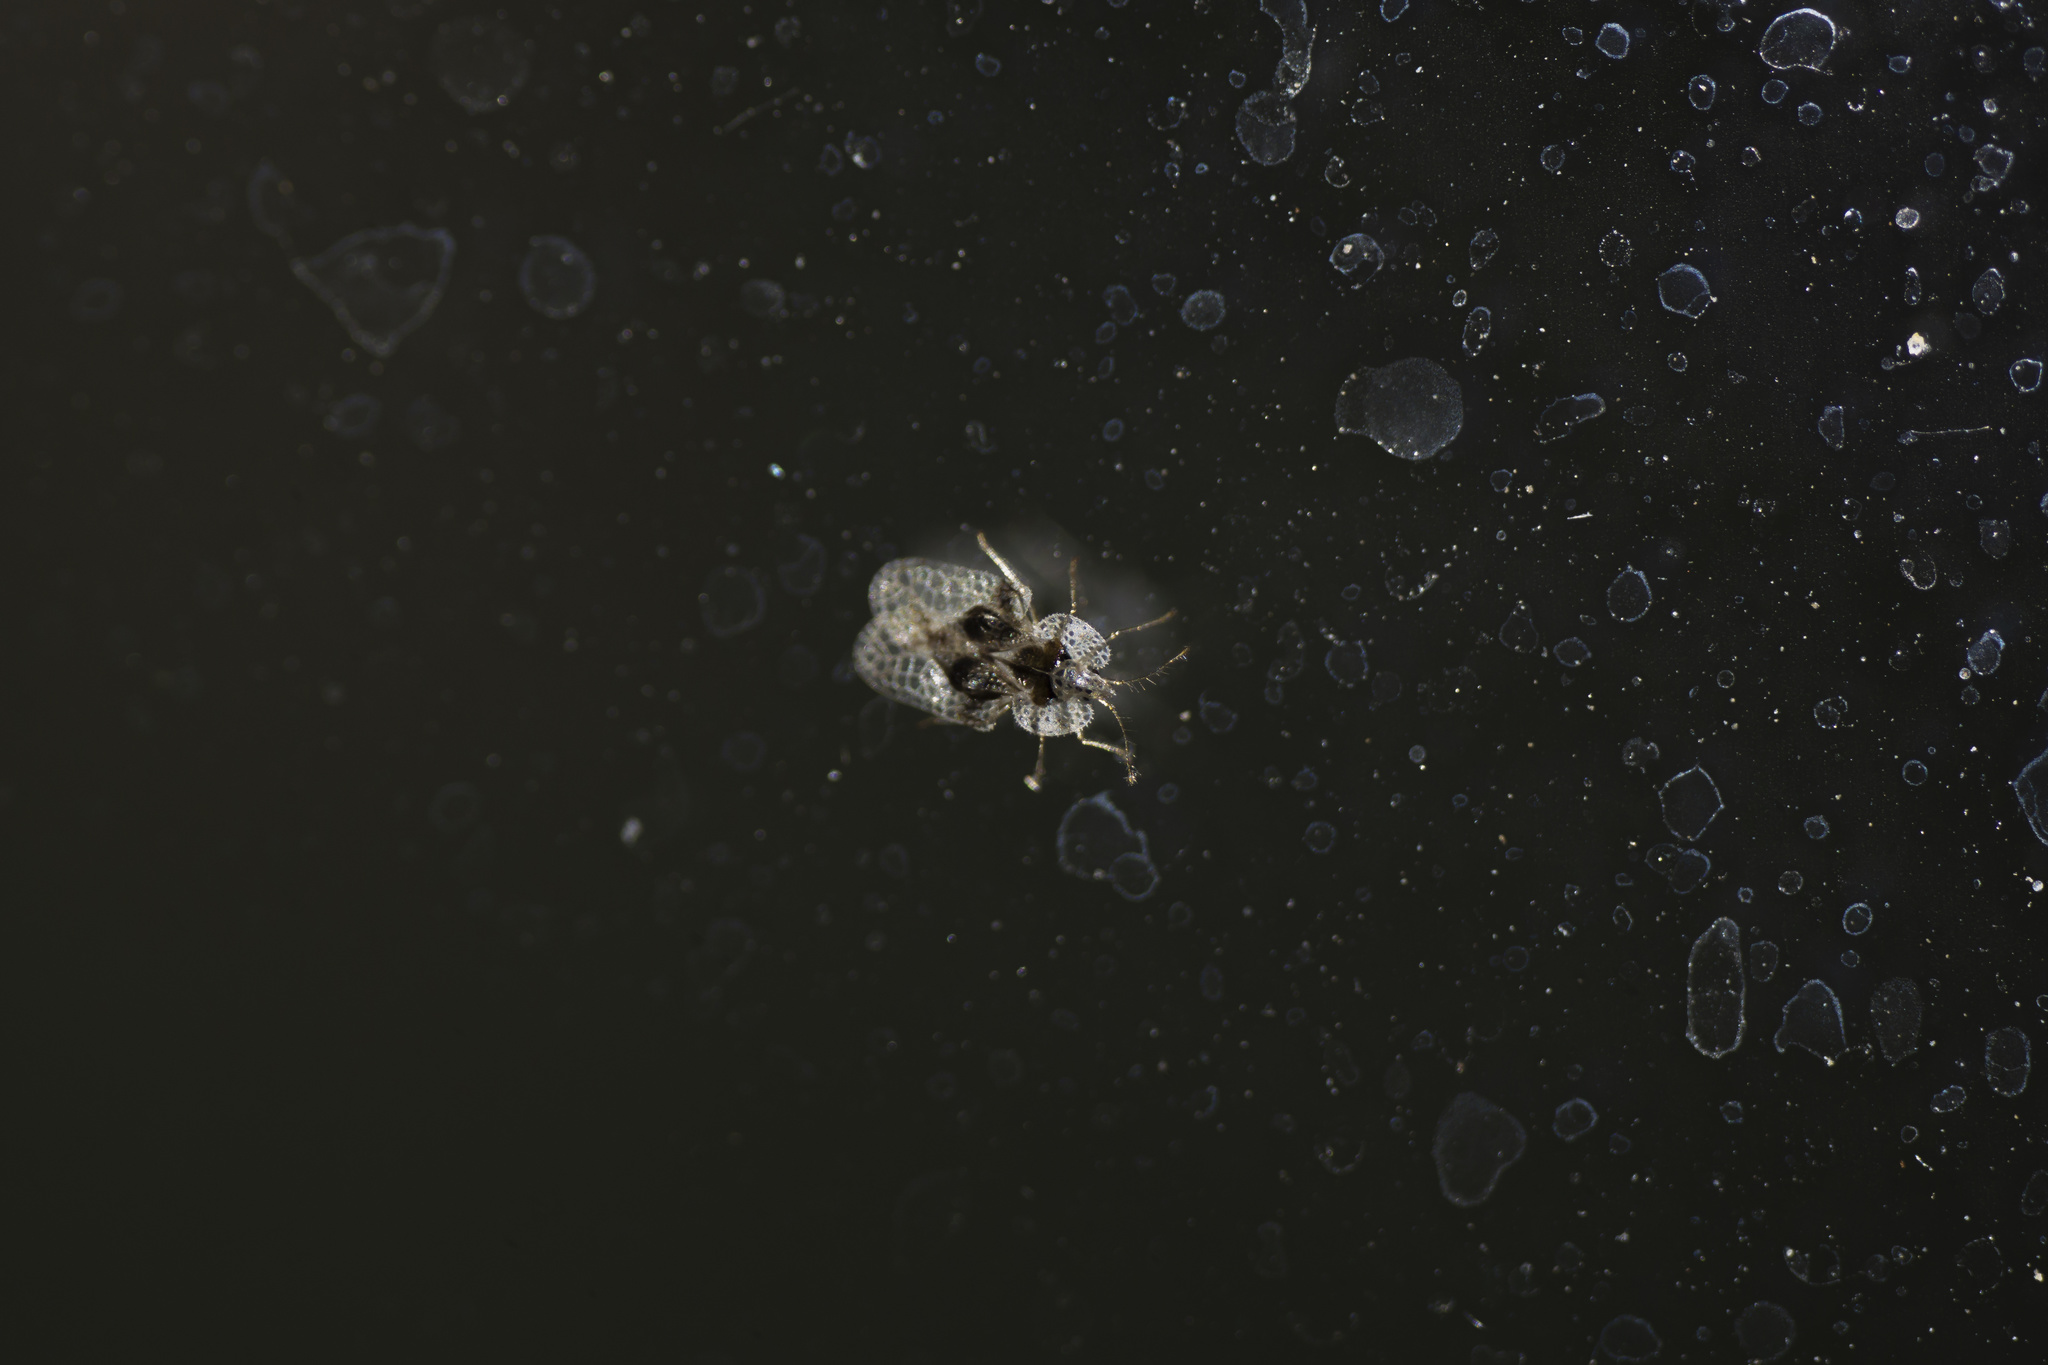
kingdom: Animalia
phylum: Arthropoda
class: Insecta
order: Hemiptera
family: Tingidae
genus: Corythucha
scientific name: Corythucha arcuata
